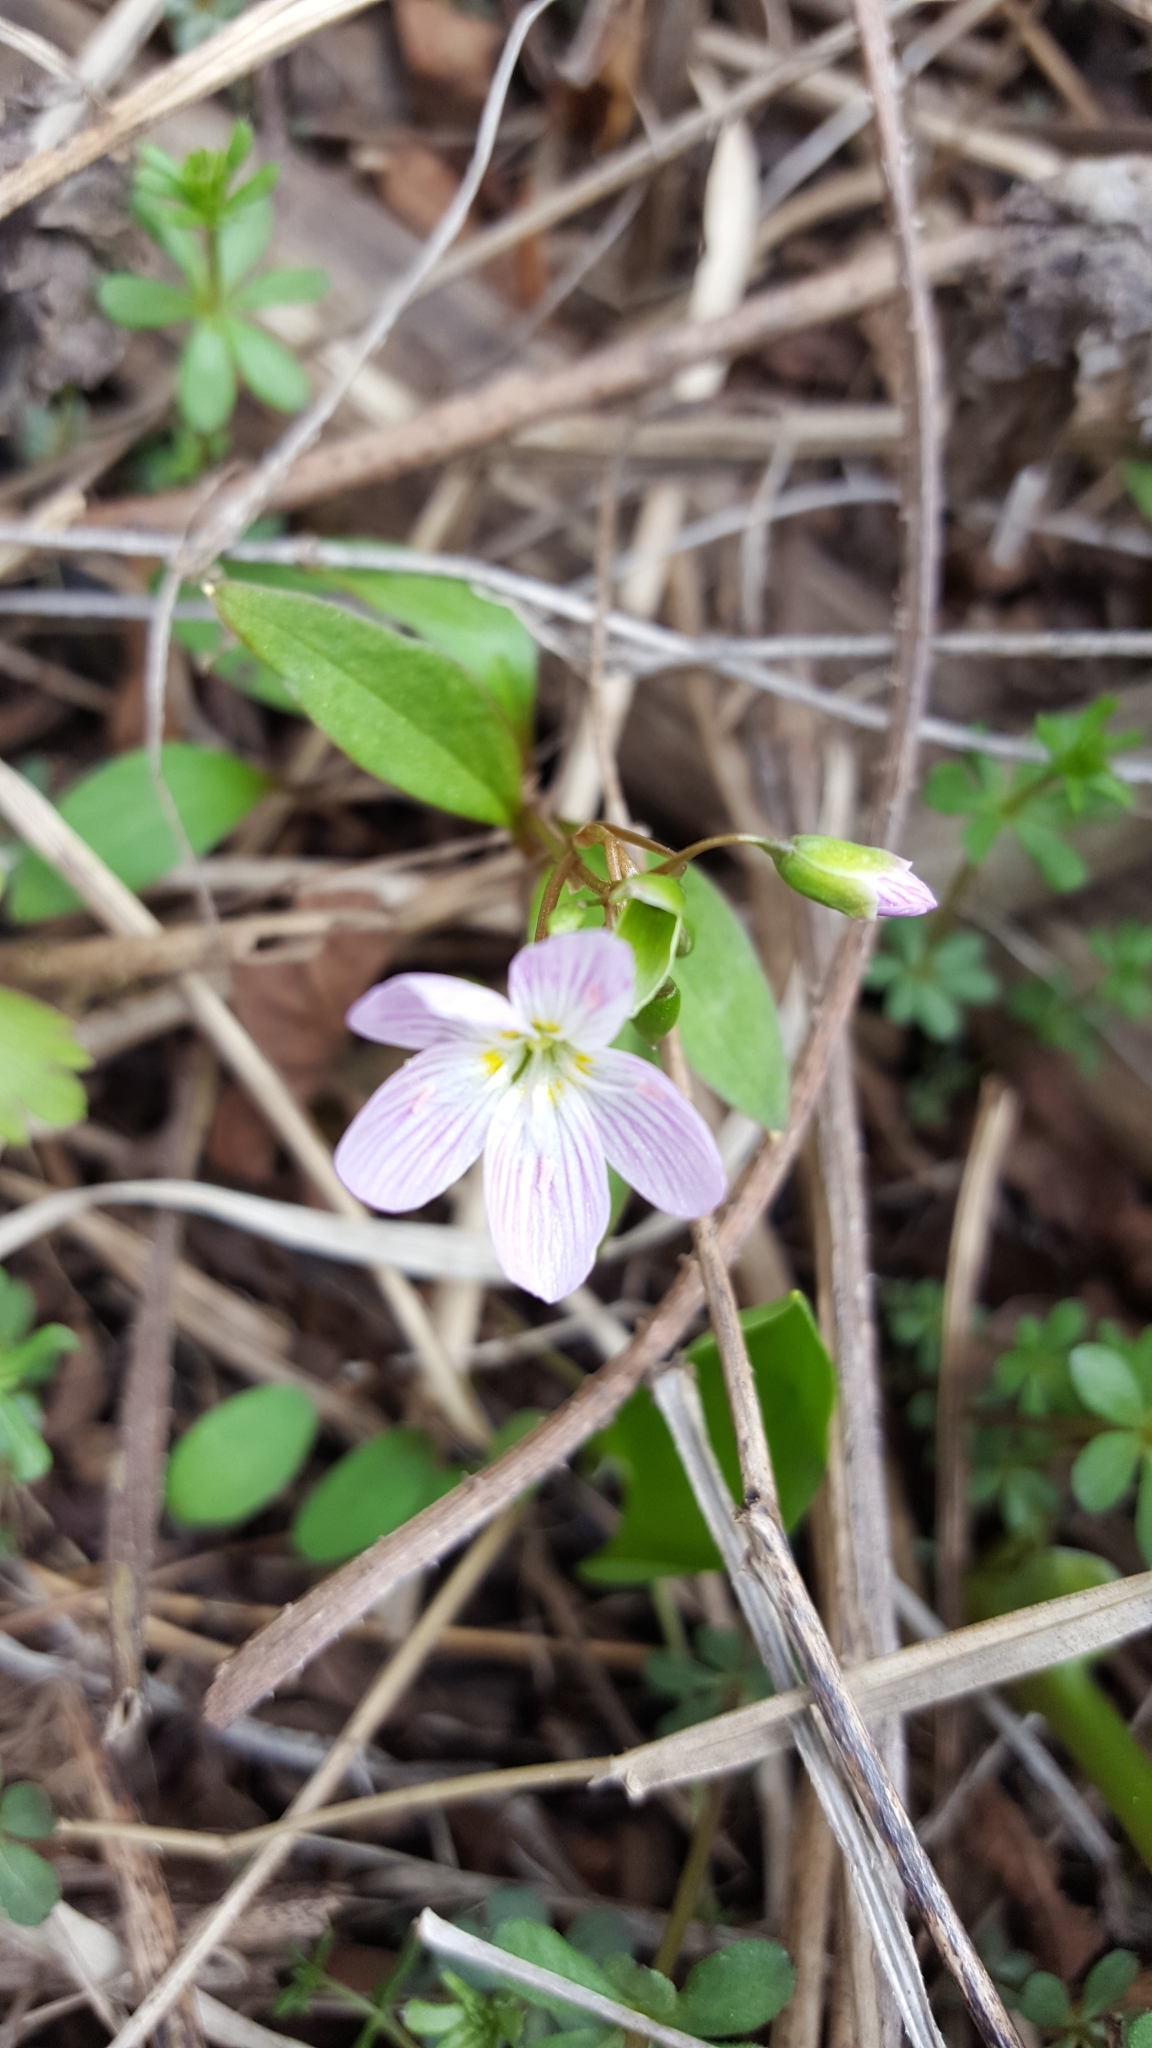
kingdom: Plantae
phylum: Tracheophyta
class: Magnoliopsida
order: Caryophyllales
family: Montiaceae
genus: Claytonia
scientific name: Claytonia caroliniana
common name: Carolina spring beauty
